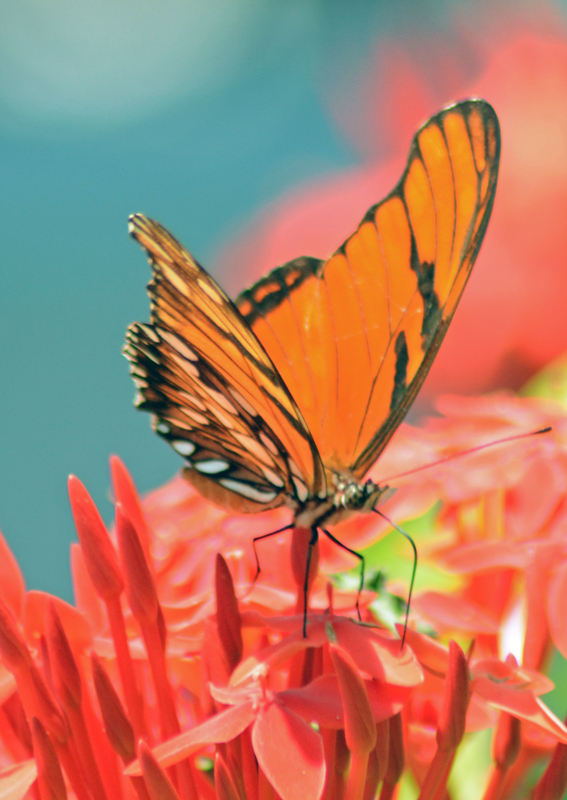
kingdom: Animalia
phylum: Arthropoda
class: Insecta
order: Lepidoptera
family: Nymphalidae
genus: Dione
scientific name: Dione juno
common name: Juno silverspot
